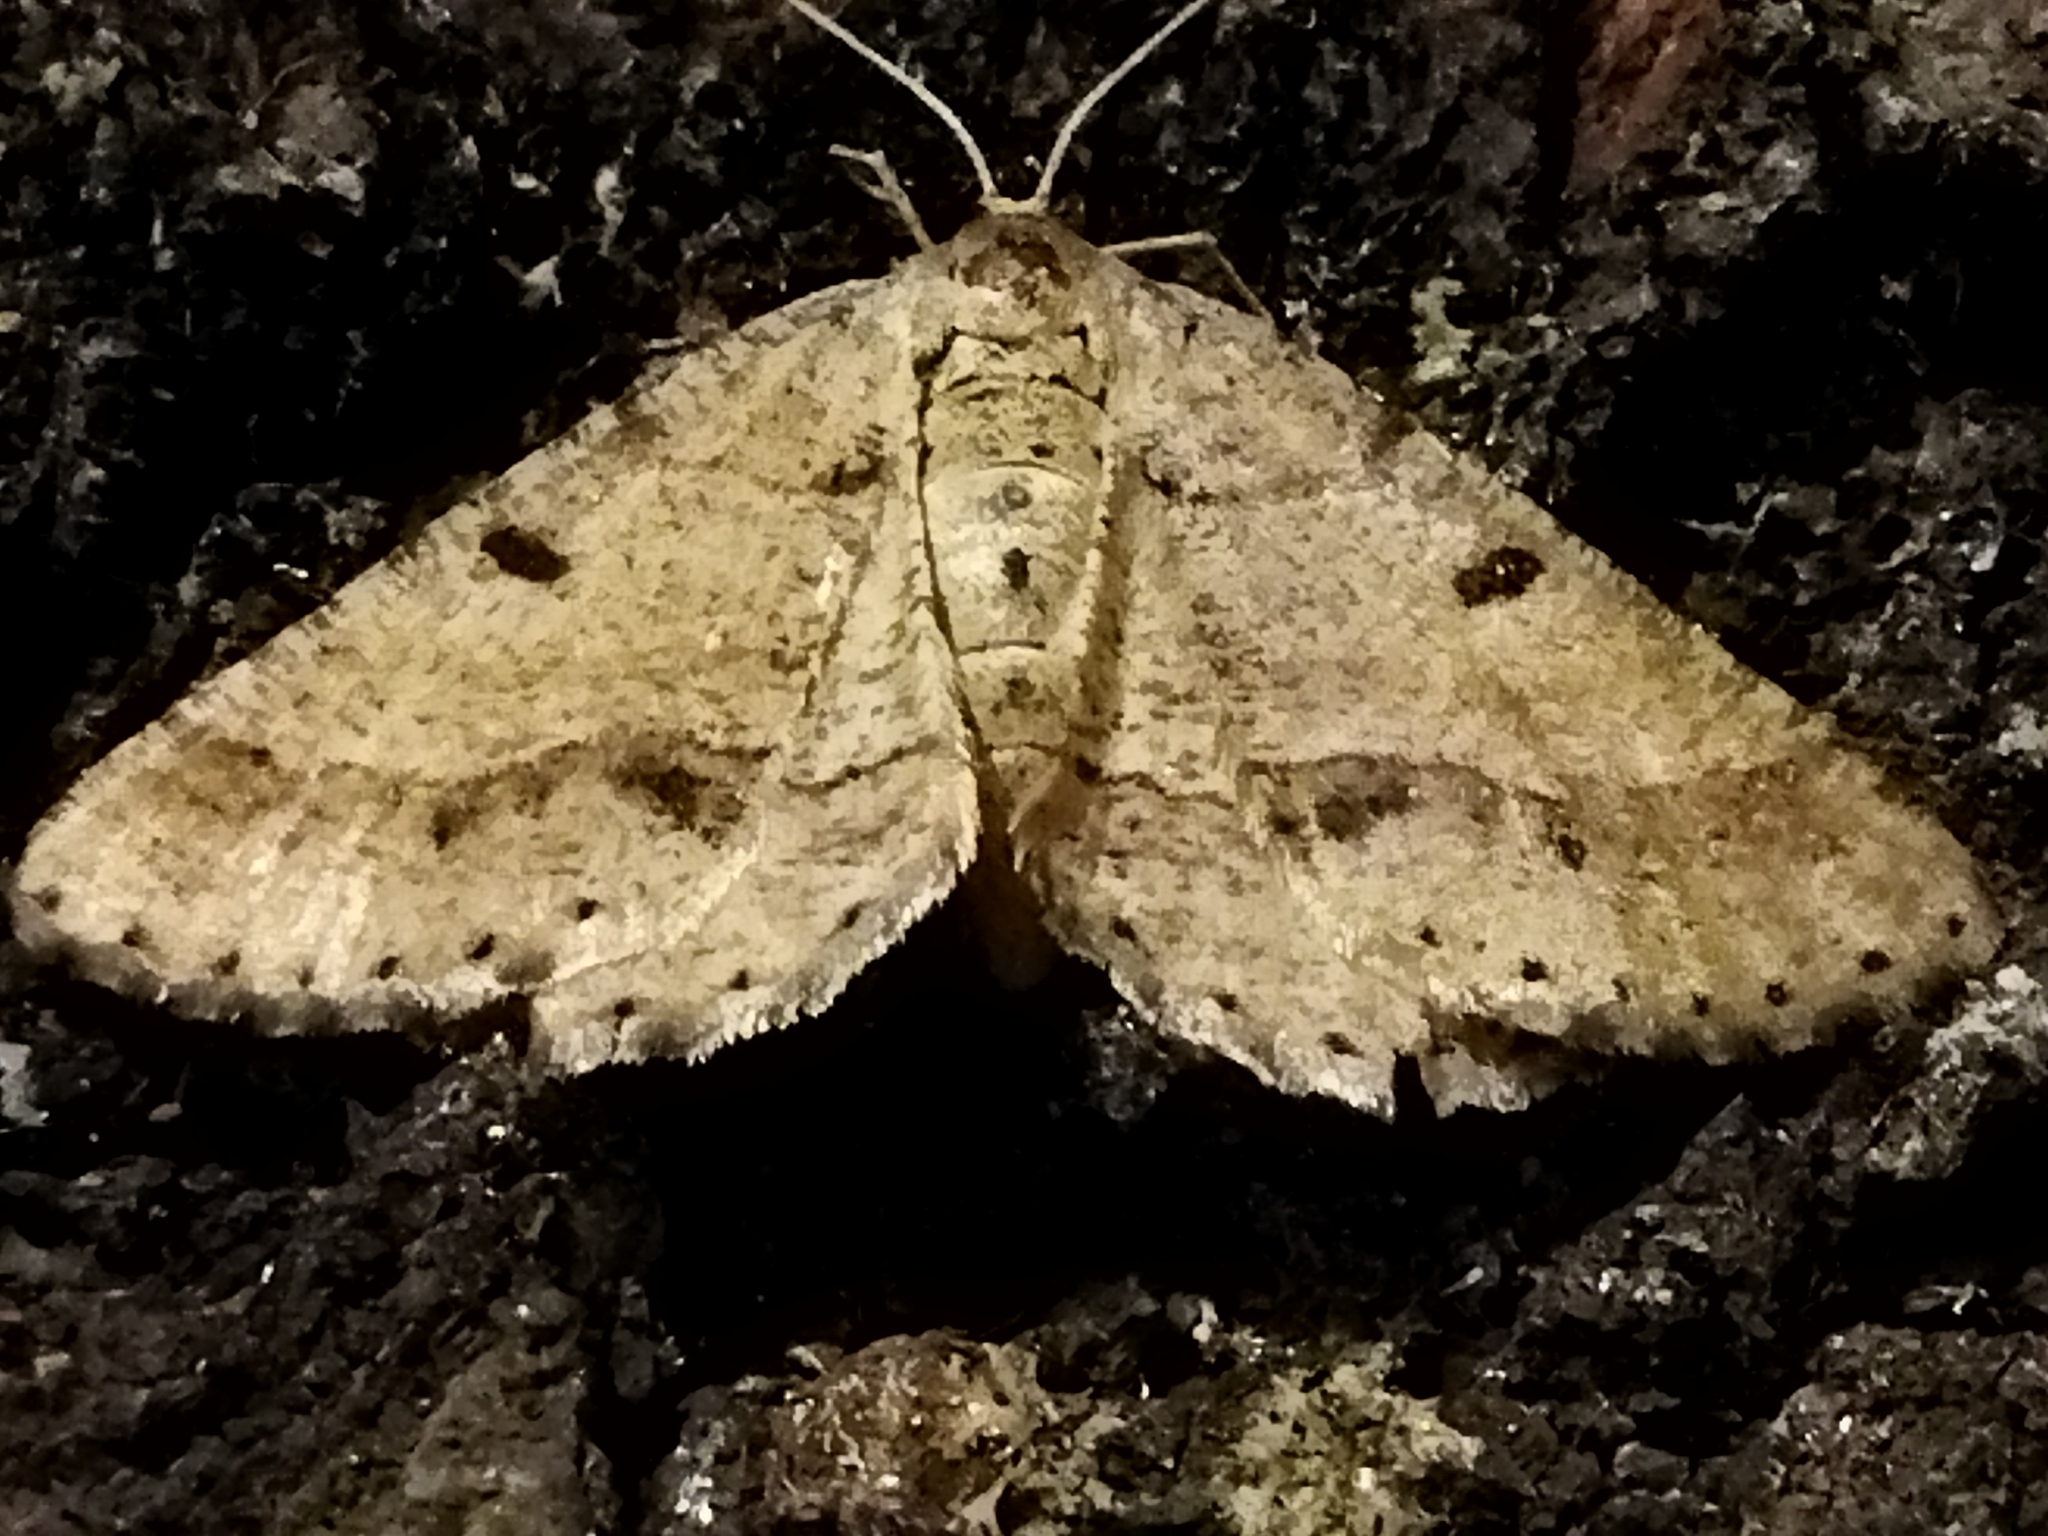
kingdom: Animalia
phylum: Arthropoda
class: Insecta
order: Lepidoptera
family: Geometridae
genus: Tephrina
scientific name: Tephrina murinaria
